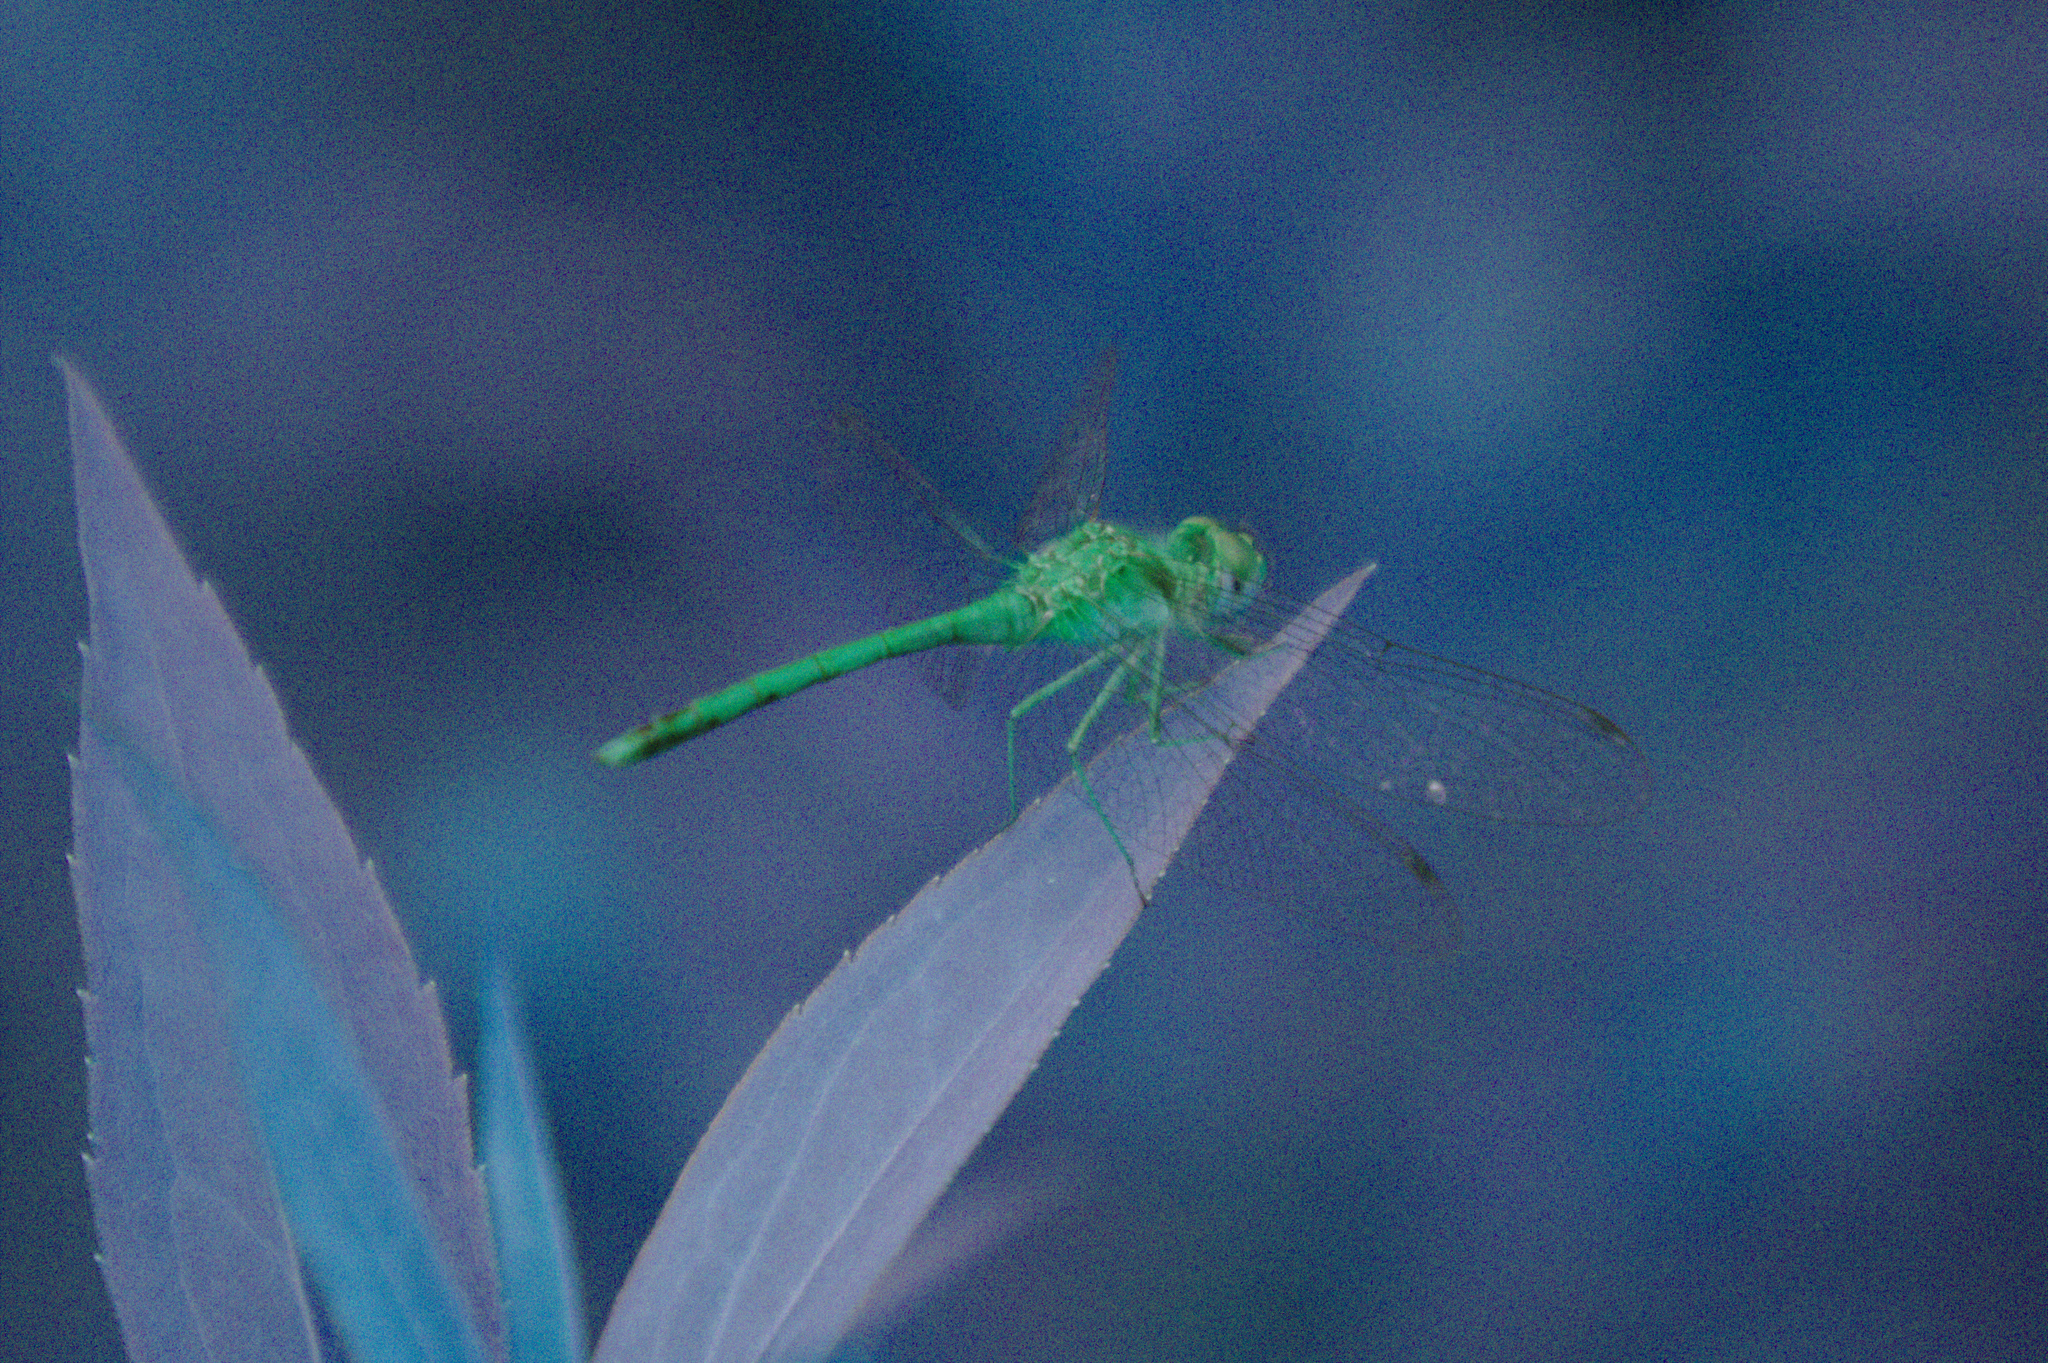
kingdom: Animalia
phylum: Arthropoda
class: Insecta
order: Odonata
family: Libellulidae
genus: Sympetrum
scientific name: Sympetrum vicinum
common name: Autumn meadowhawk
